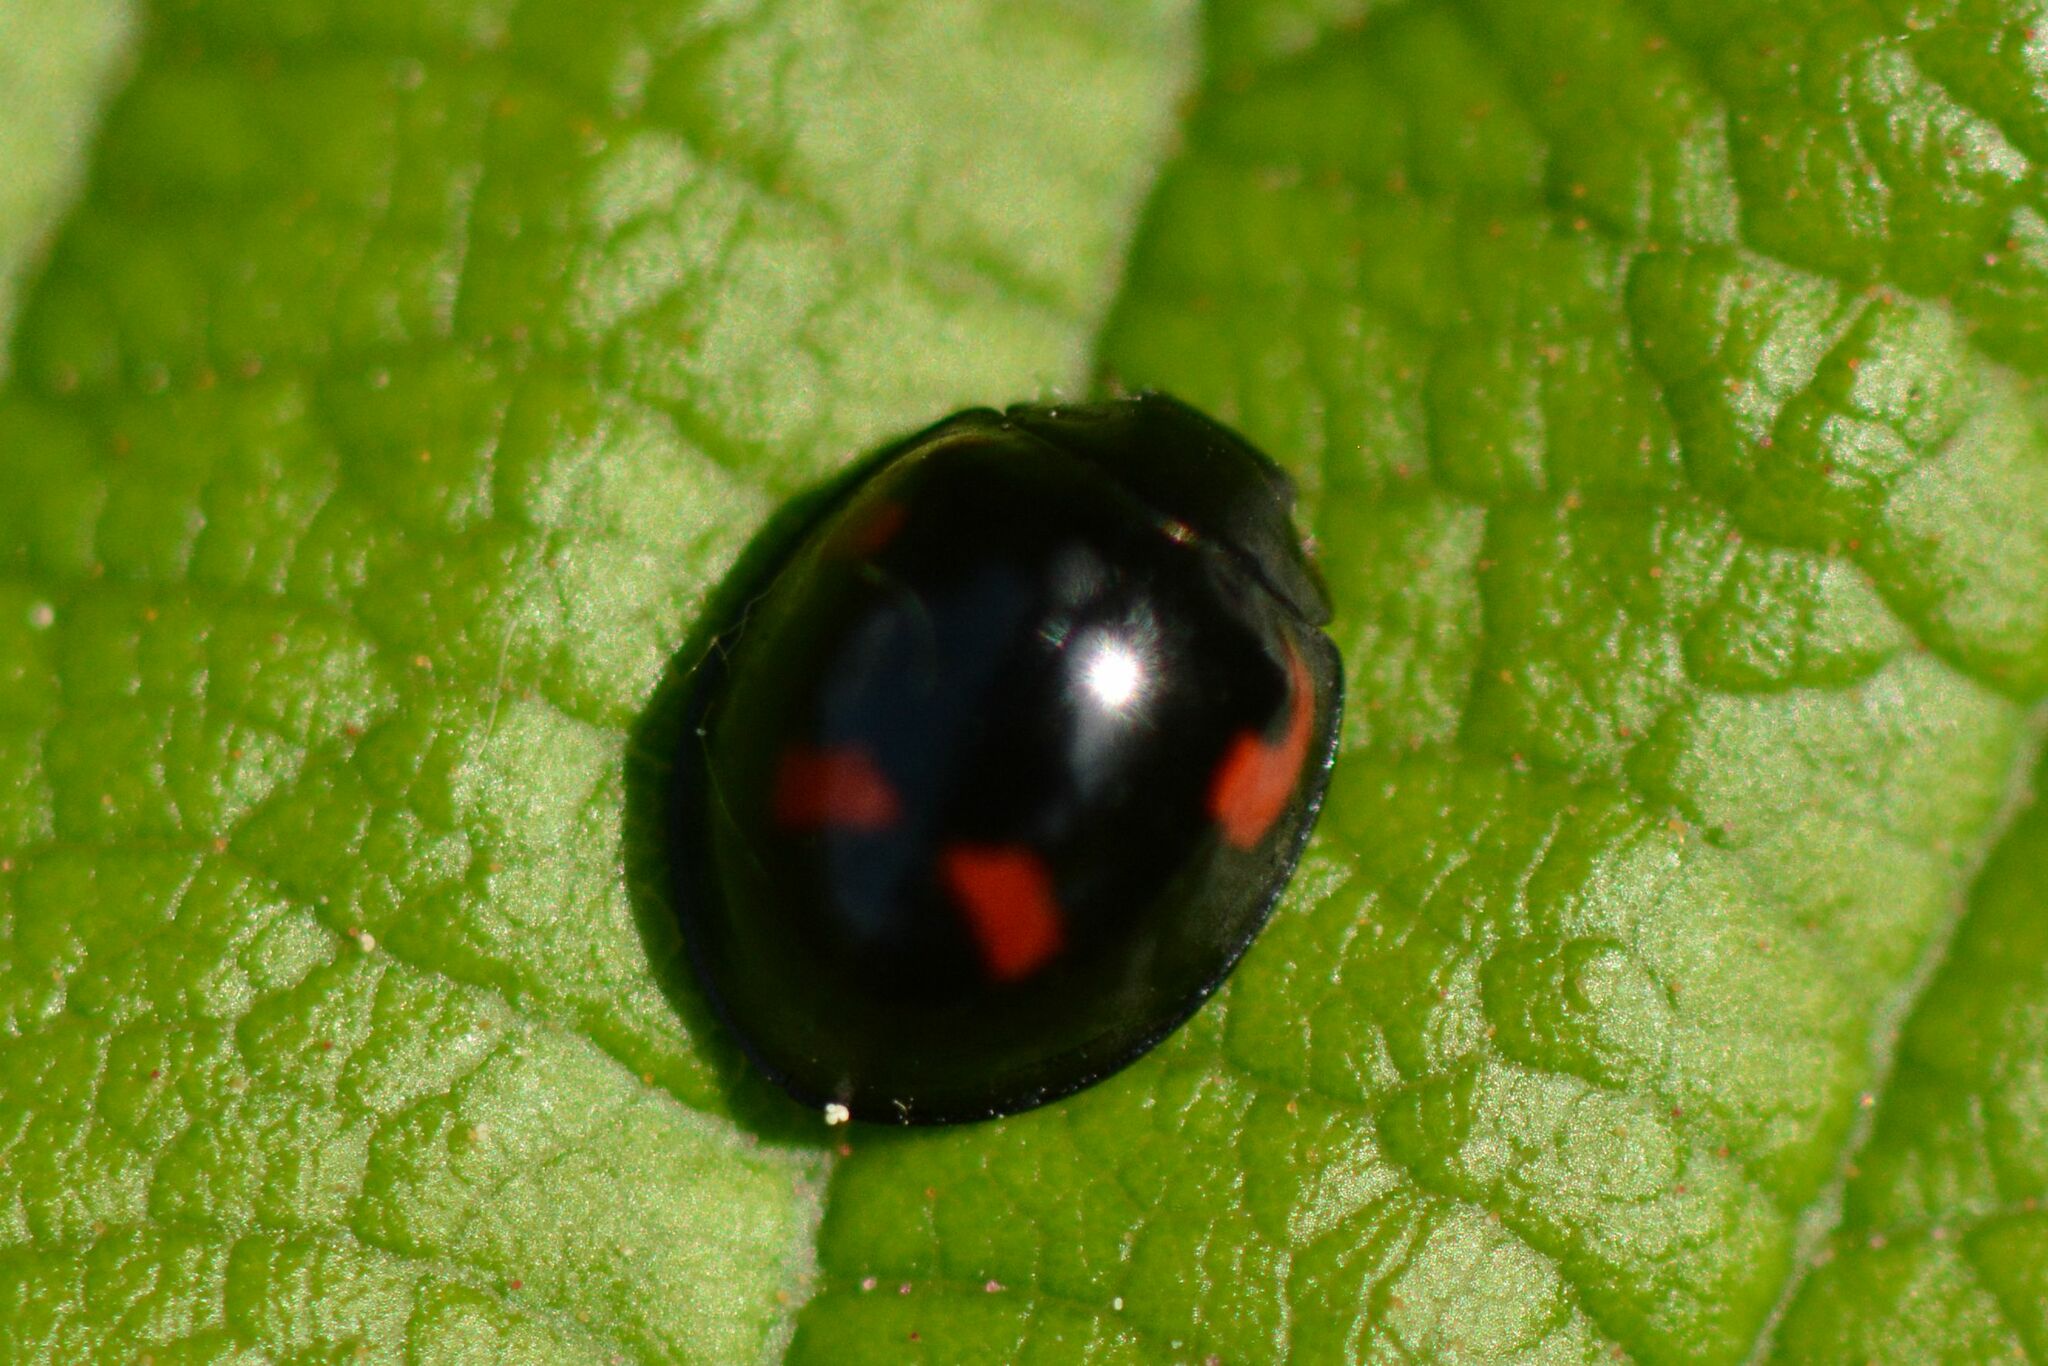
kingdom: Animalia
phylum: Arthropoda
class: Insecta
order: Coleoptera
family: Coccinellidae
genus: Brumus
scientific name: Brumus quadripustulatus
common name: Ladybird beetle
